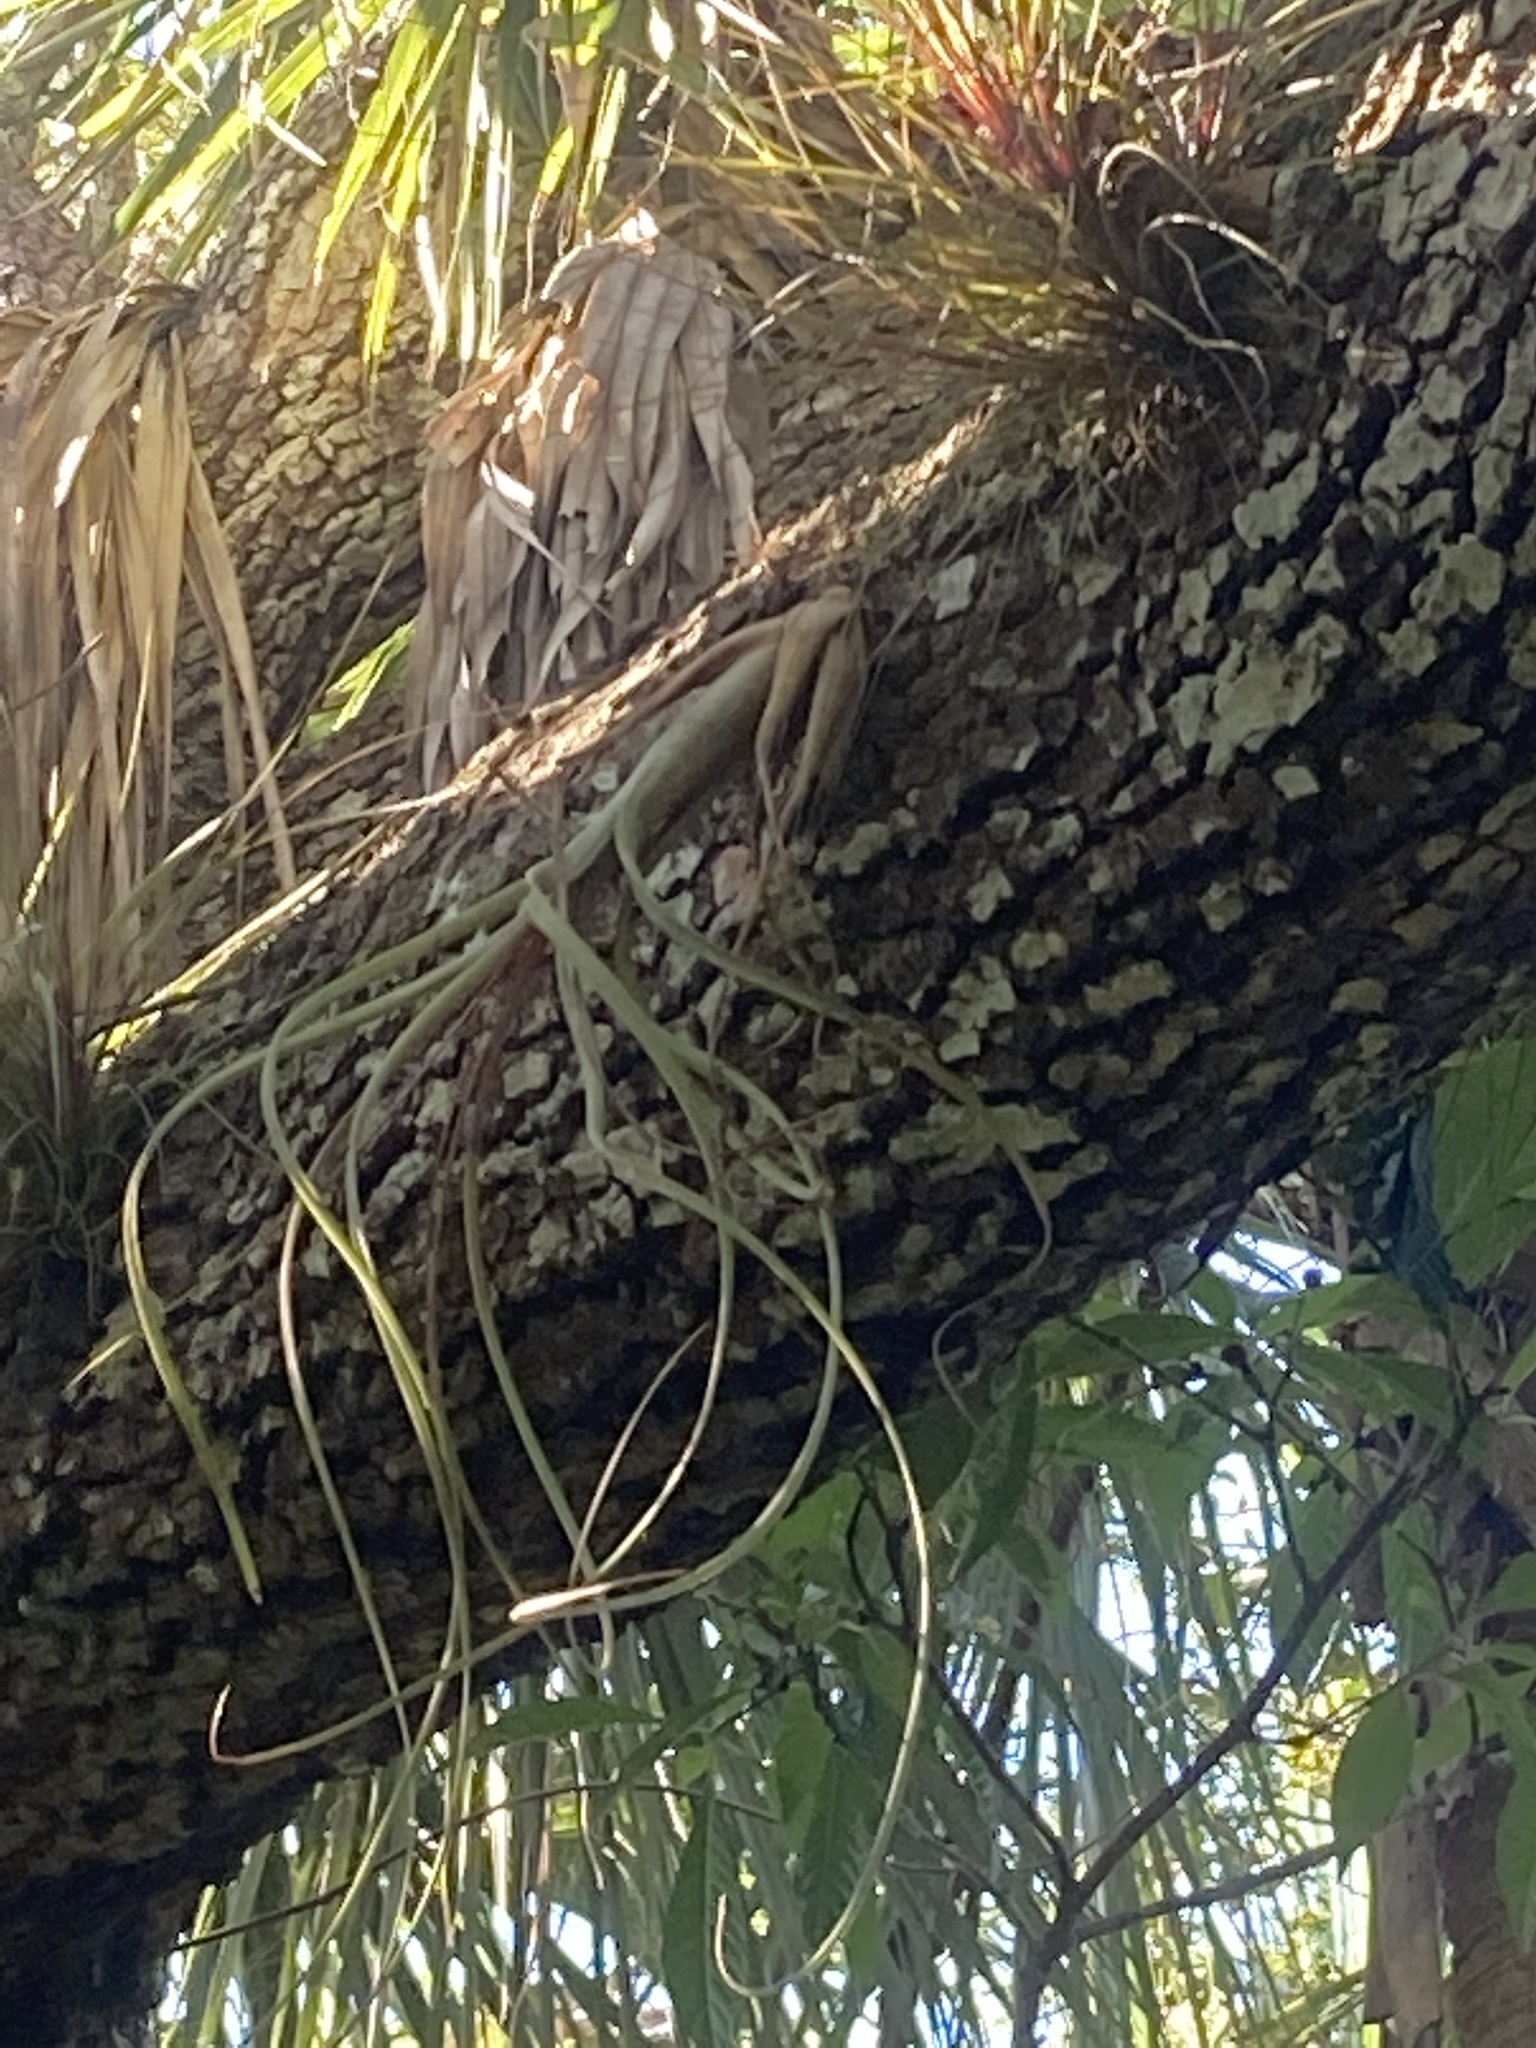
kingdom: Plantae
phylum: Tracheophyta
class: Liliopsida
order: Poales
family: Bromeliaceae
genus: Tillandsia
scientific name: Tillandsia balbisiana
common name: Northern needleleaf
